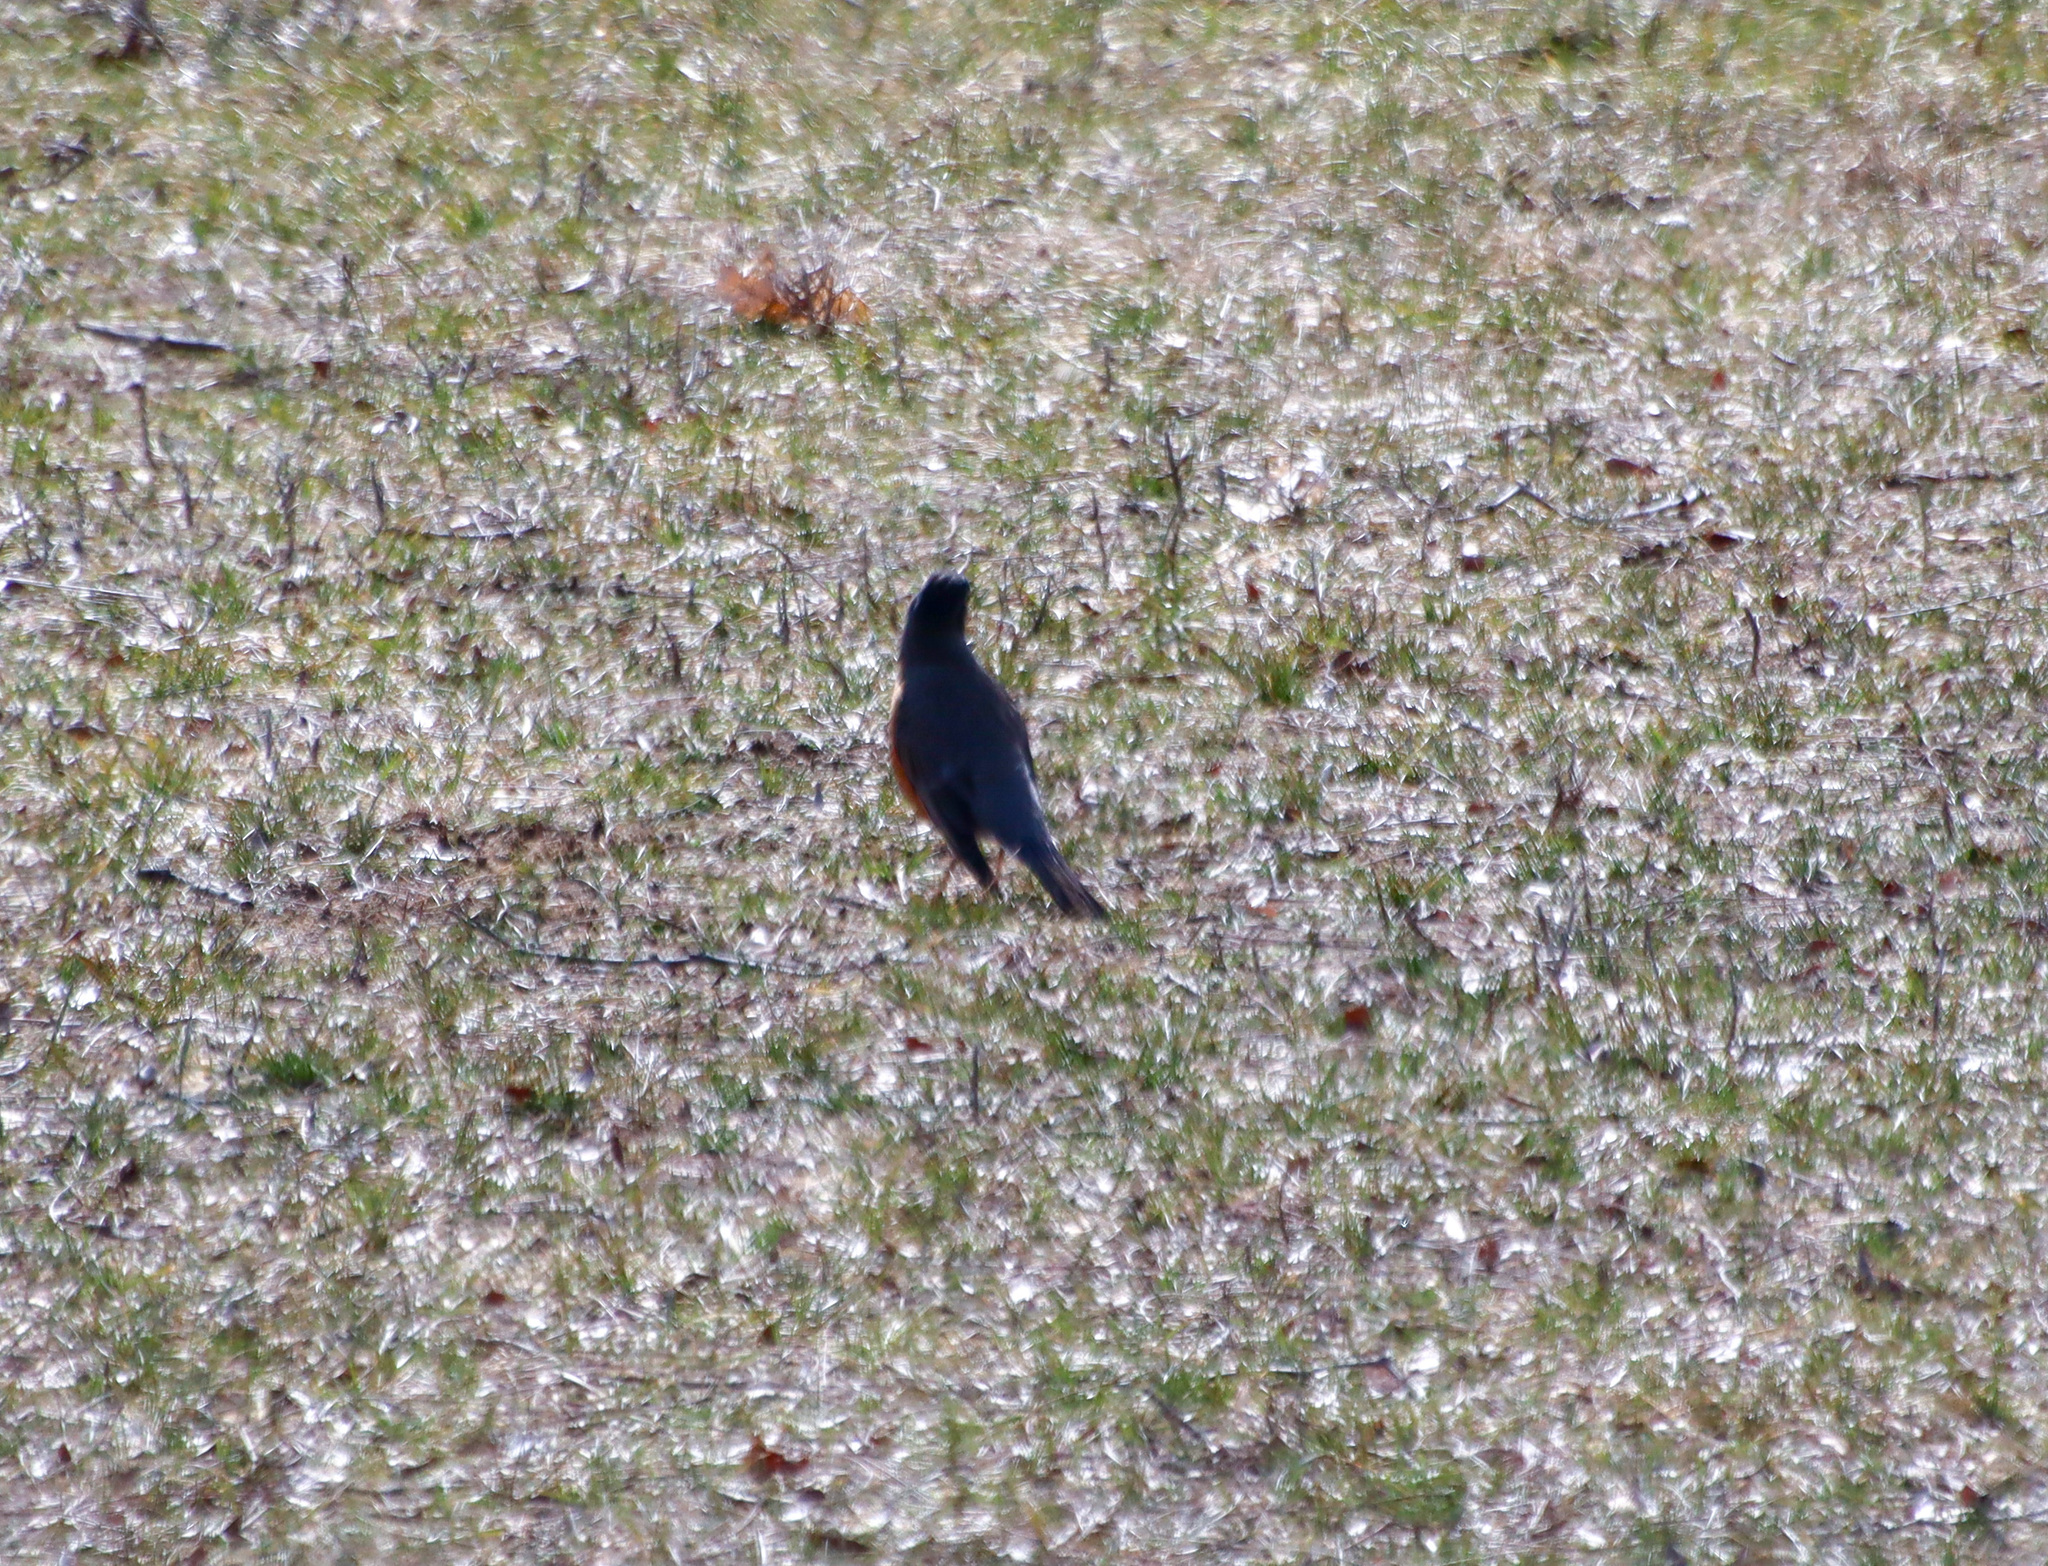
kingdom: Animalia
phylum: Chordata
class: Aves
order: Passeriformes
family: Turdidae
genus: Turdus
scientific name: Turdus migratorius
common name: American robin
